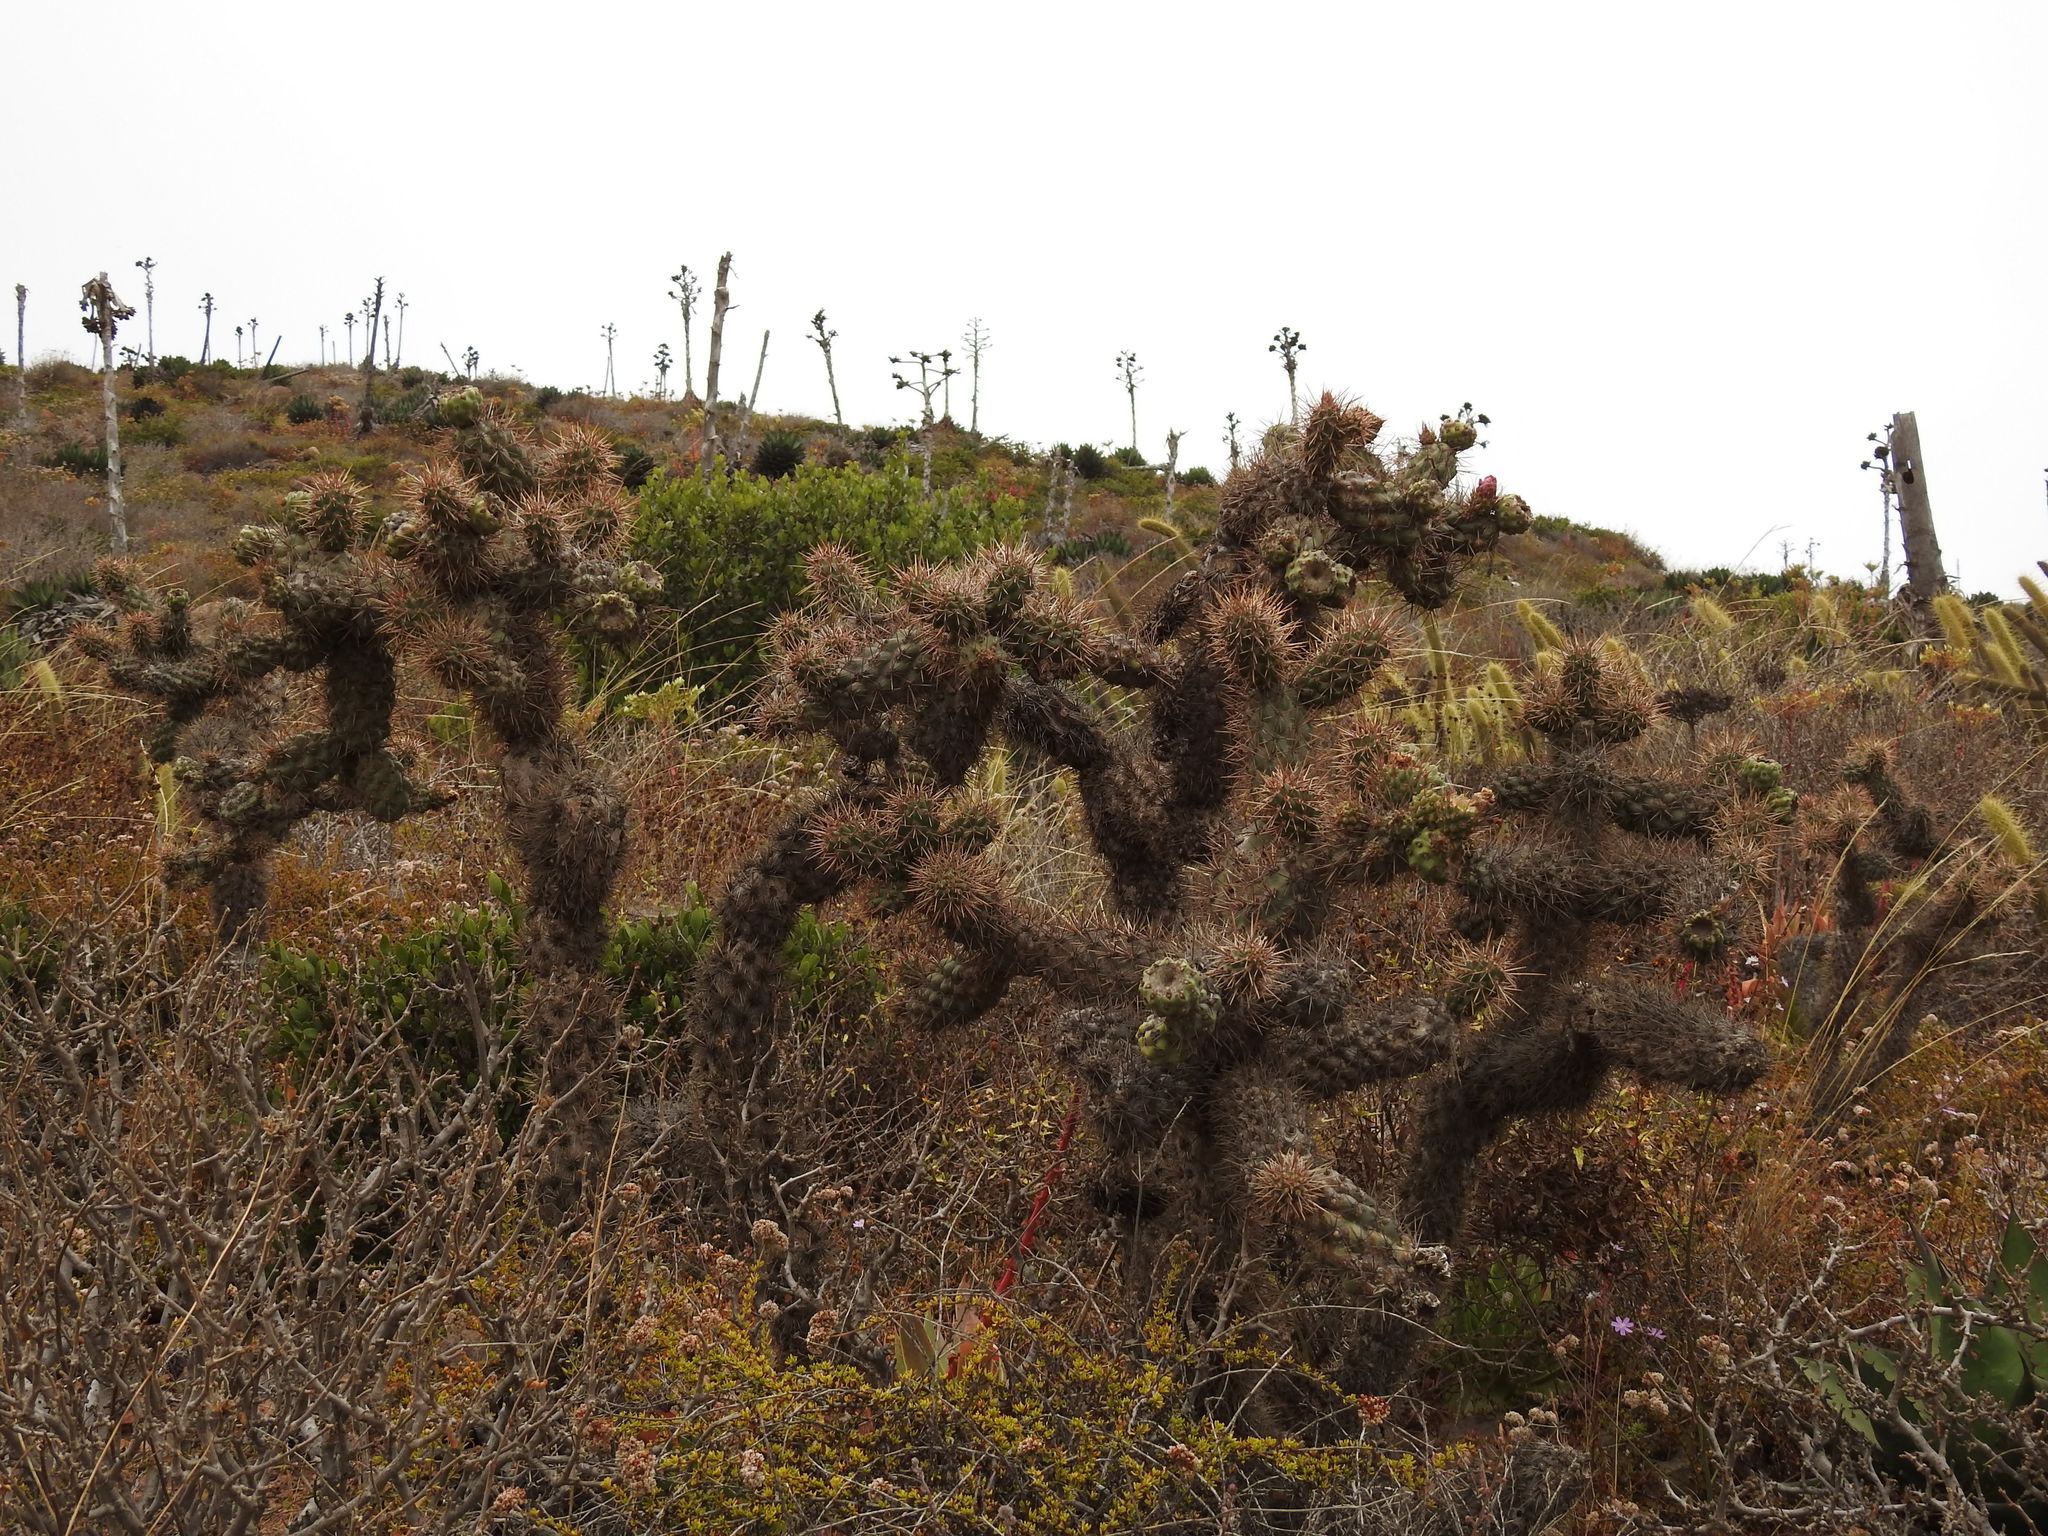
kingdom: Plantae
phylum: Tracheophyta
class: Magnoliopsida
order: Caryophyllales
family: Cactaceae
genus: Cylindropuntia
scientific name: Cylindropuntia prolifera
